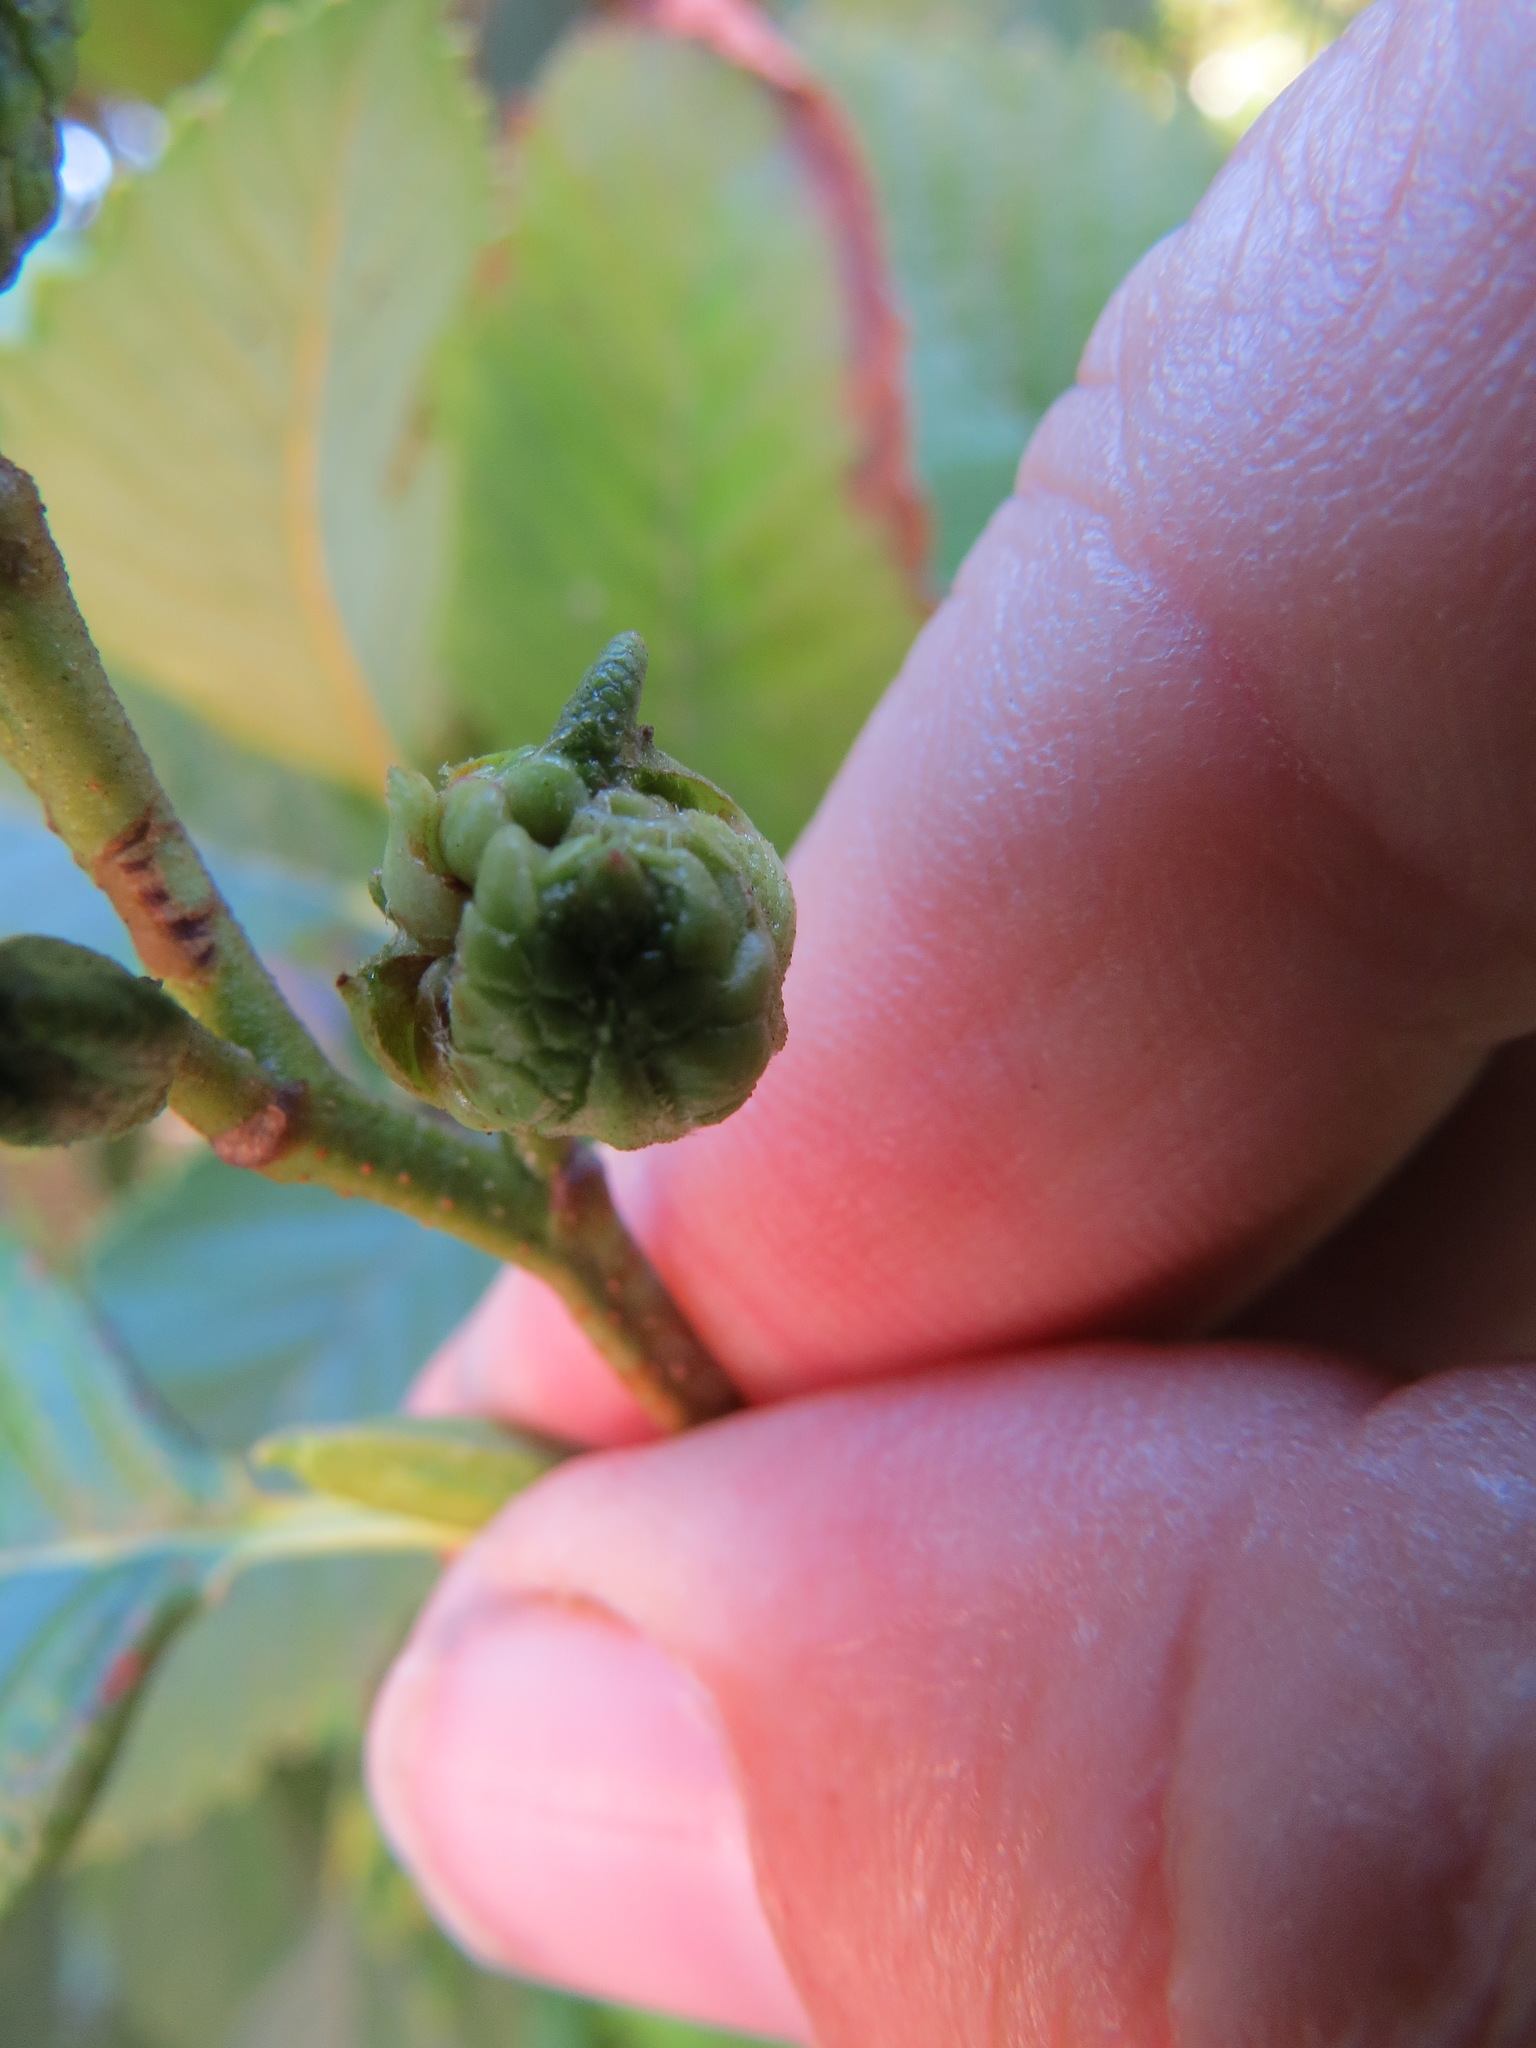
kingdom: Animalia
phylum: Arthropoda
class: Insecta
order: Diptera
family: Cecidomyiidae
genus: Dasineura
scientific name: Dasineura
